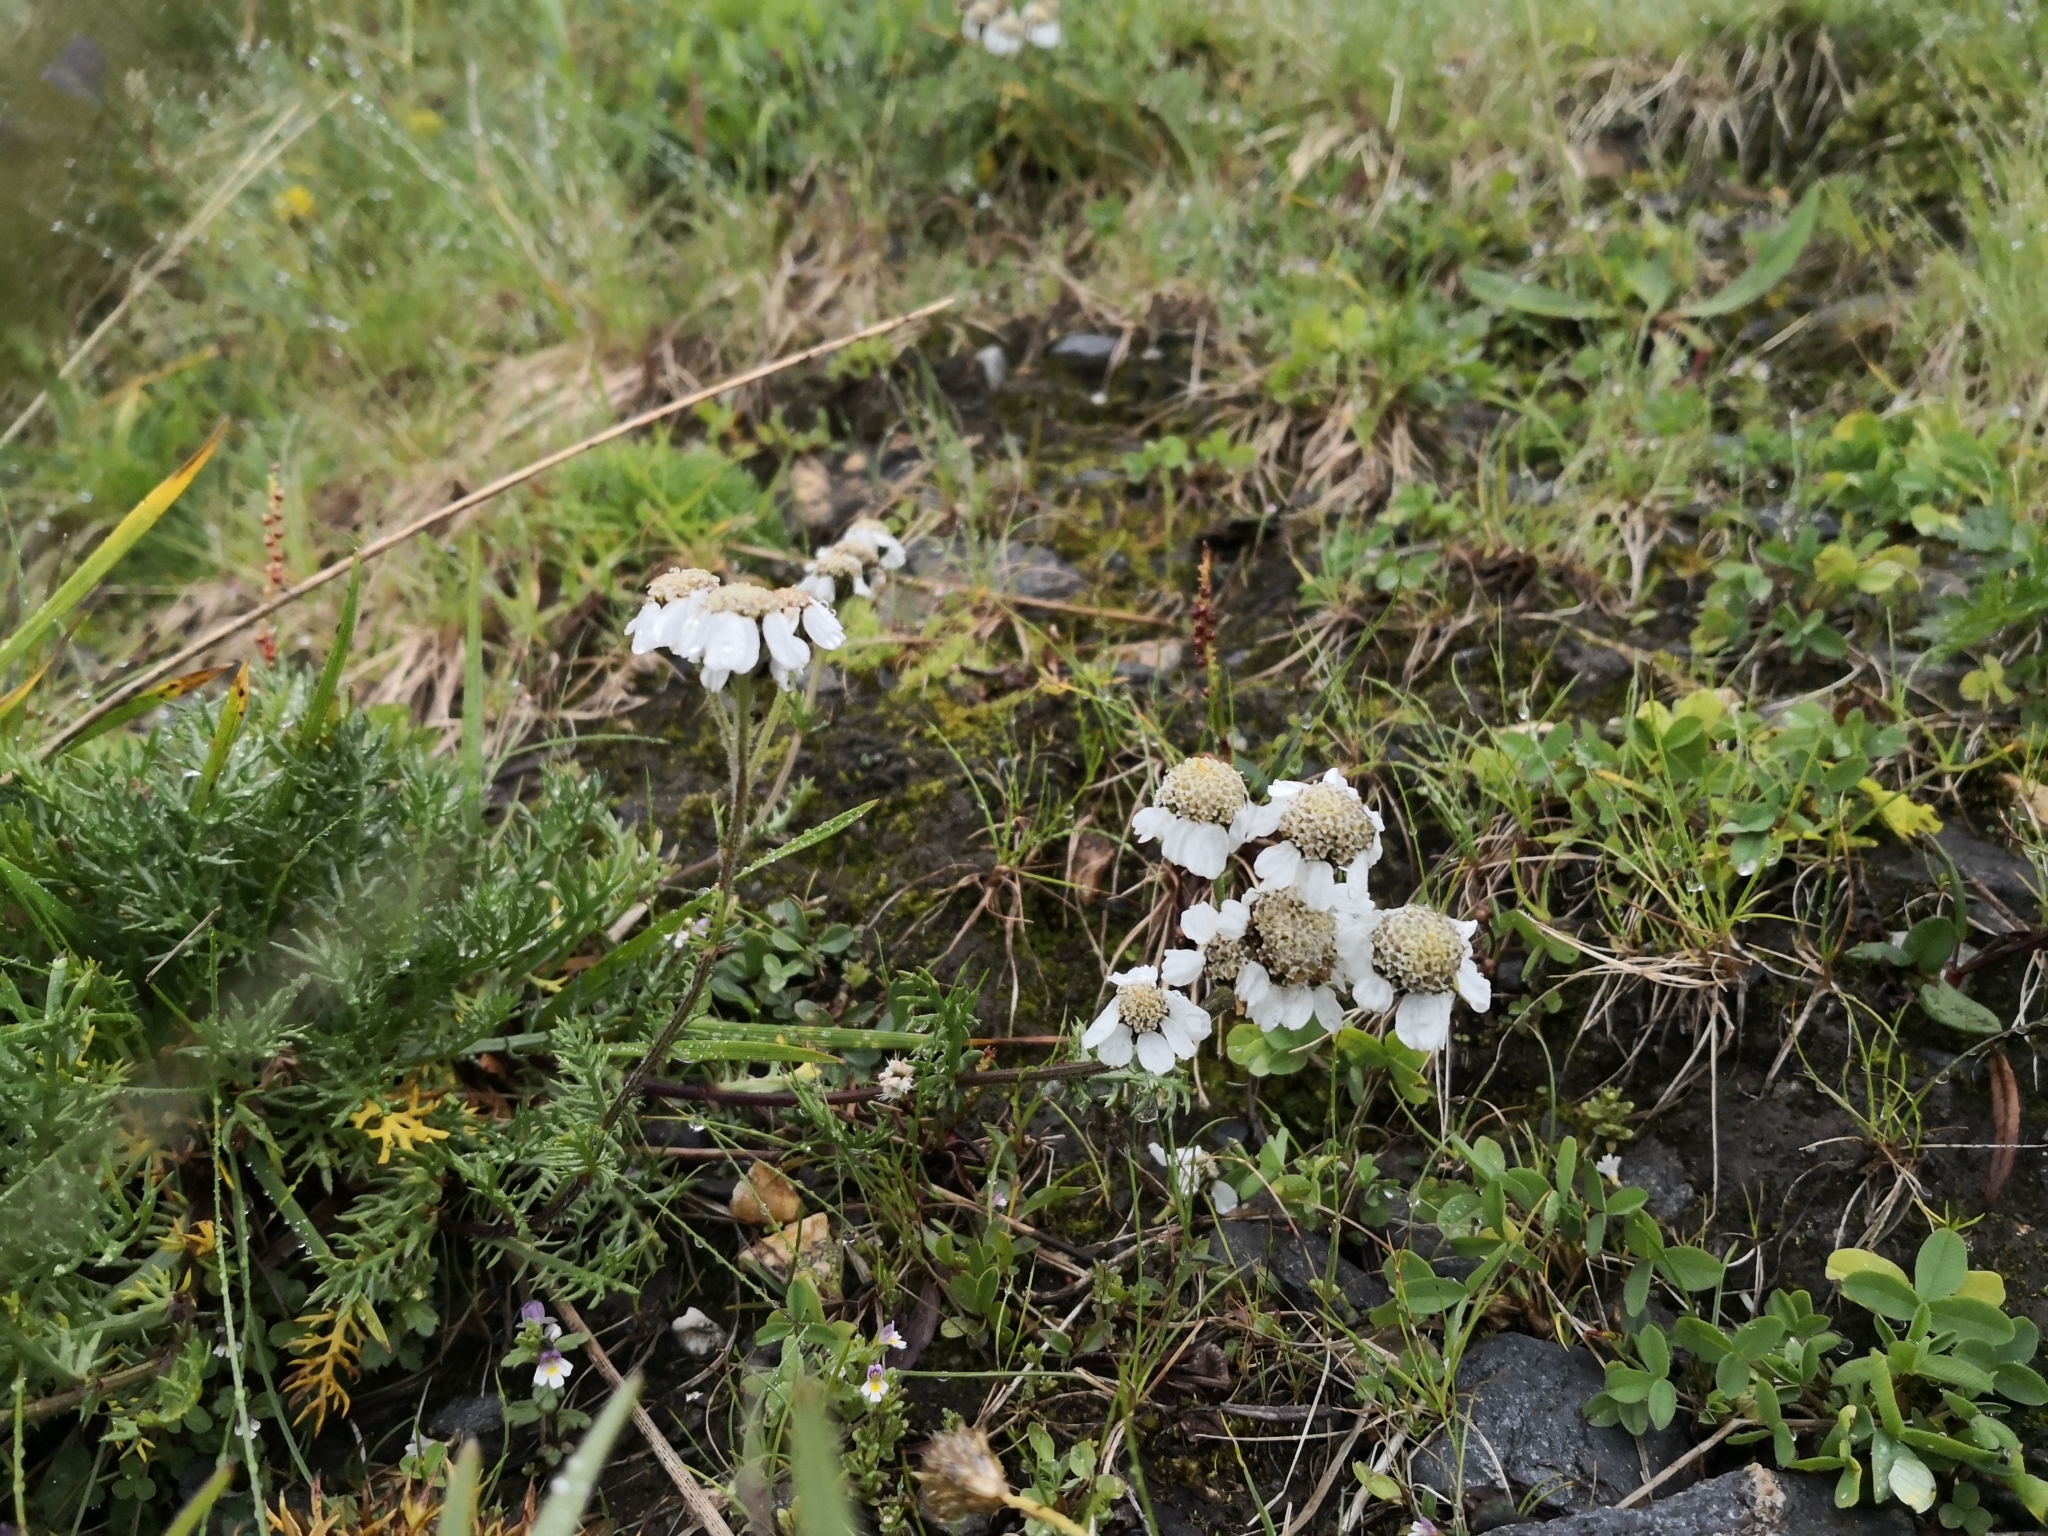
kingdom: Plantae
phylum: Tracheophyta
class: Magnoliopsida
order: Asterales
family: Asteraceae
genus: Achillea
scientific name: Achillea atrata
